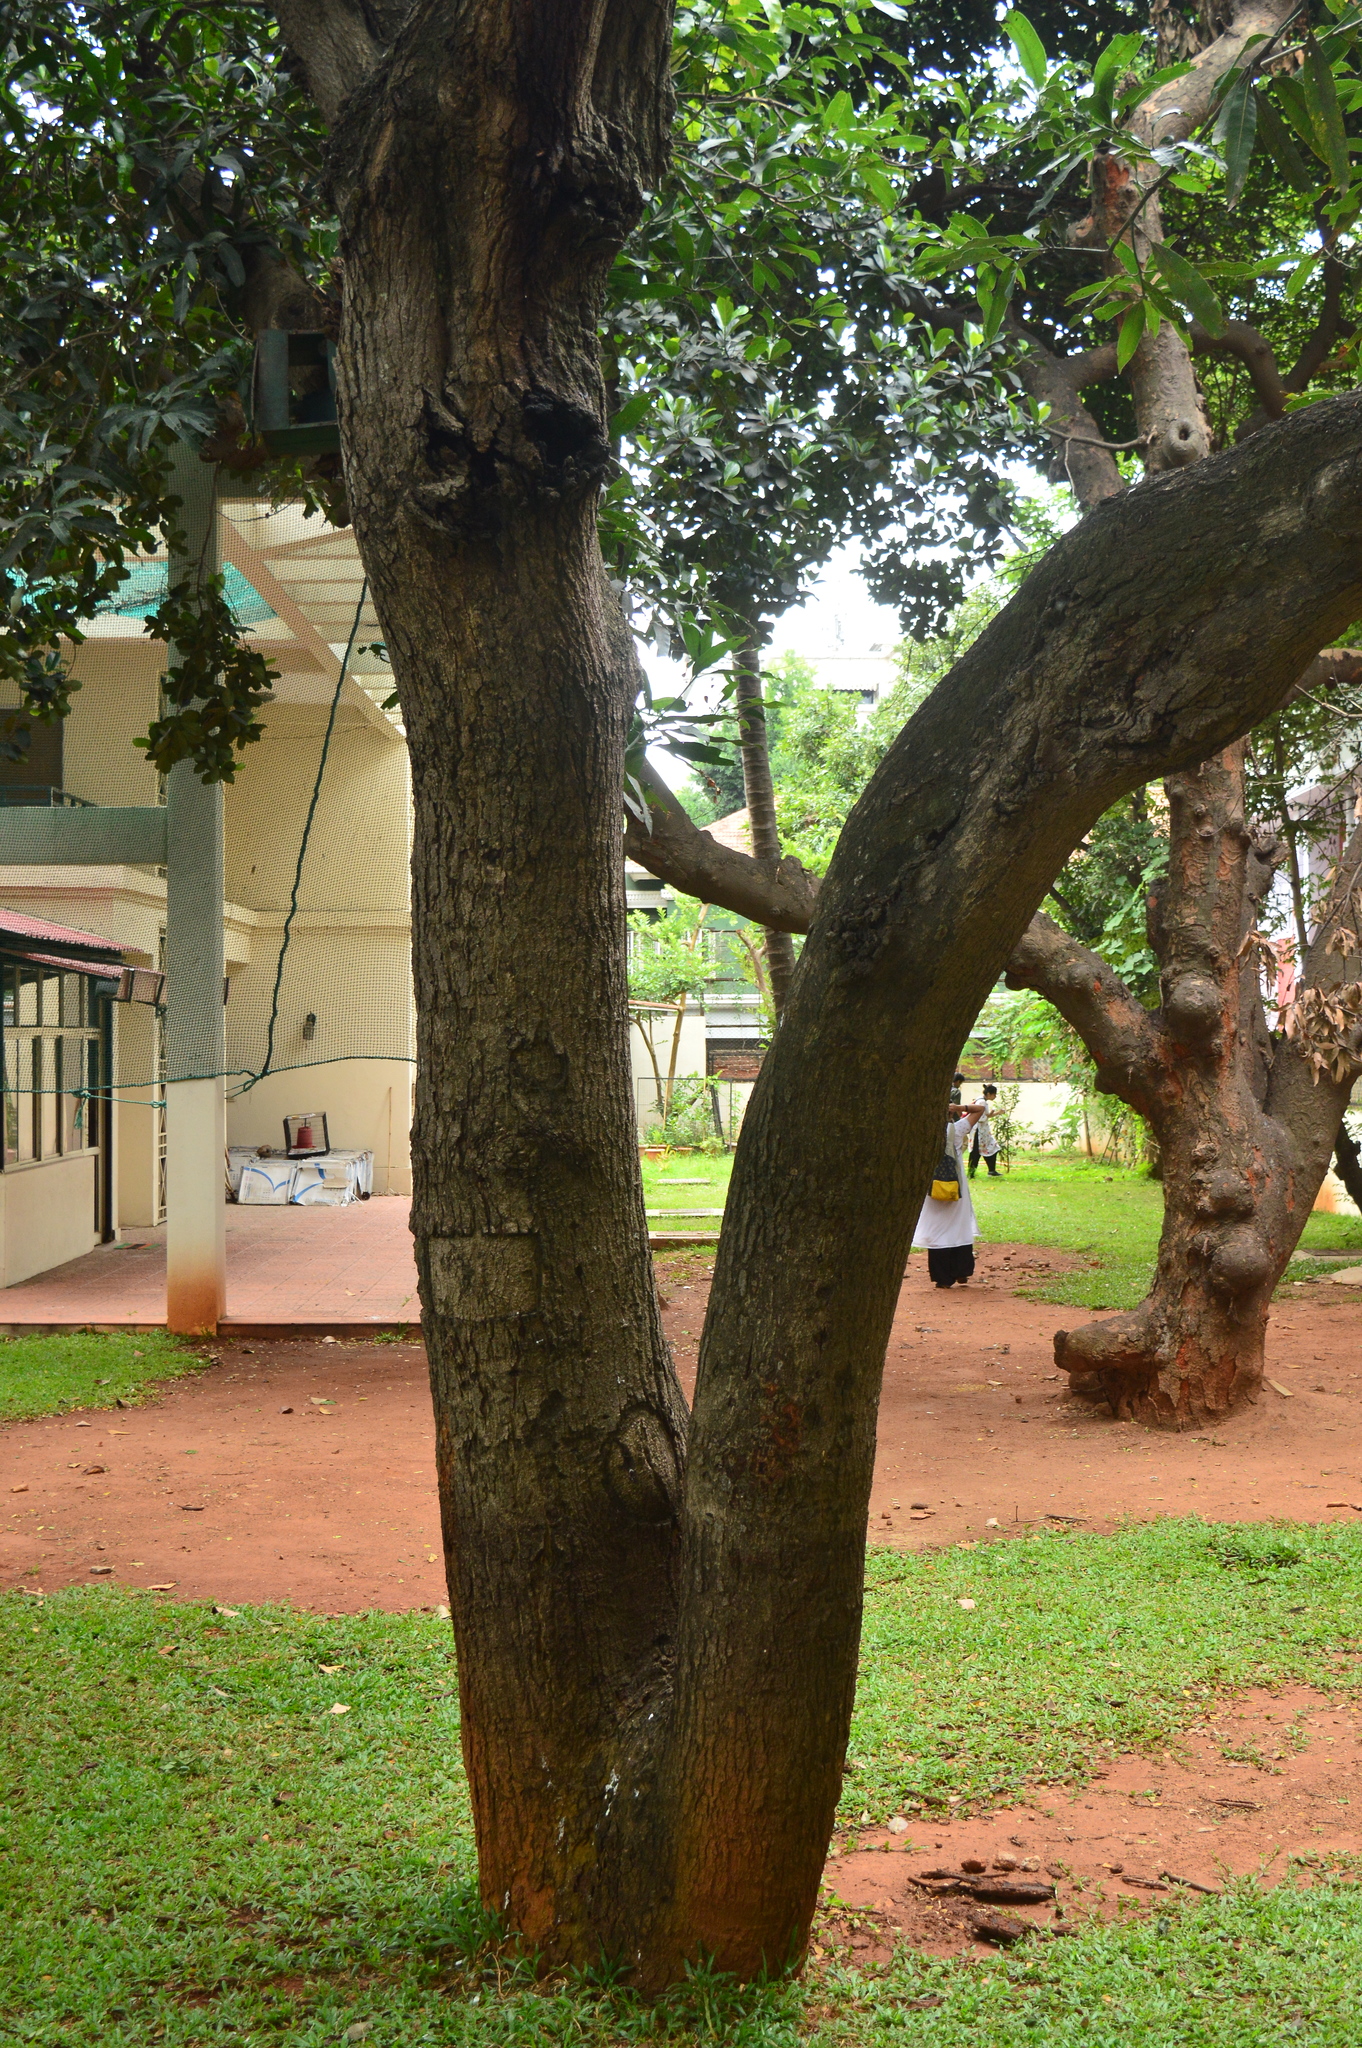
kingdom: Plantae
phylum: Tracheophyta
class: Magnoliopsida
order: Sapindales
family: Anacardiaceae
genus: Mangifera
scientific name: Mangifera indica
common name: Mango
